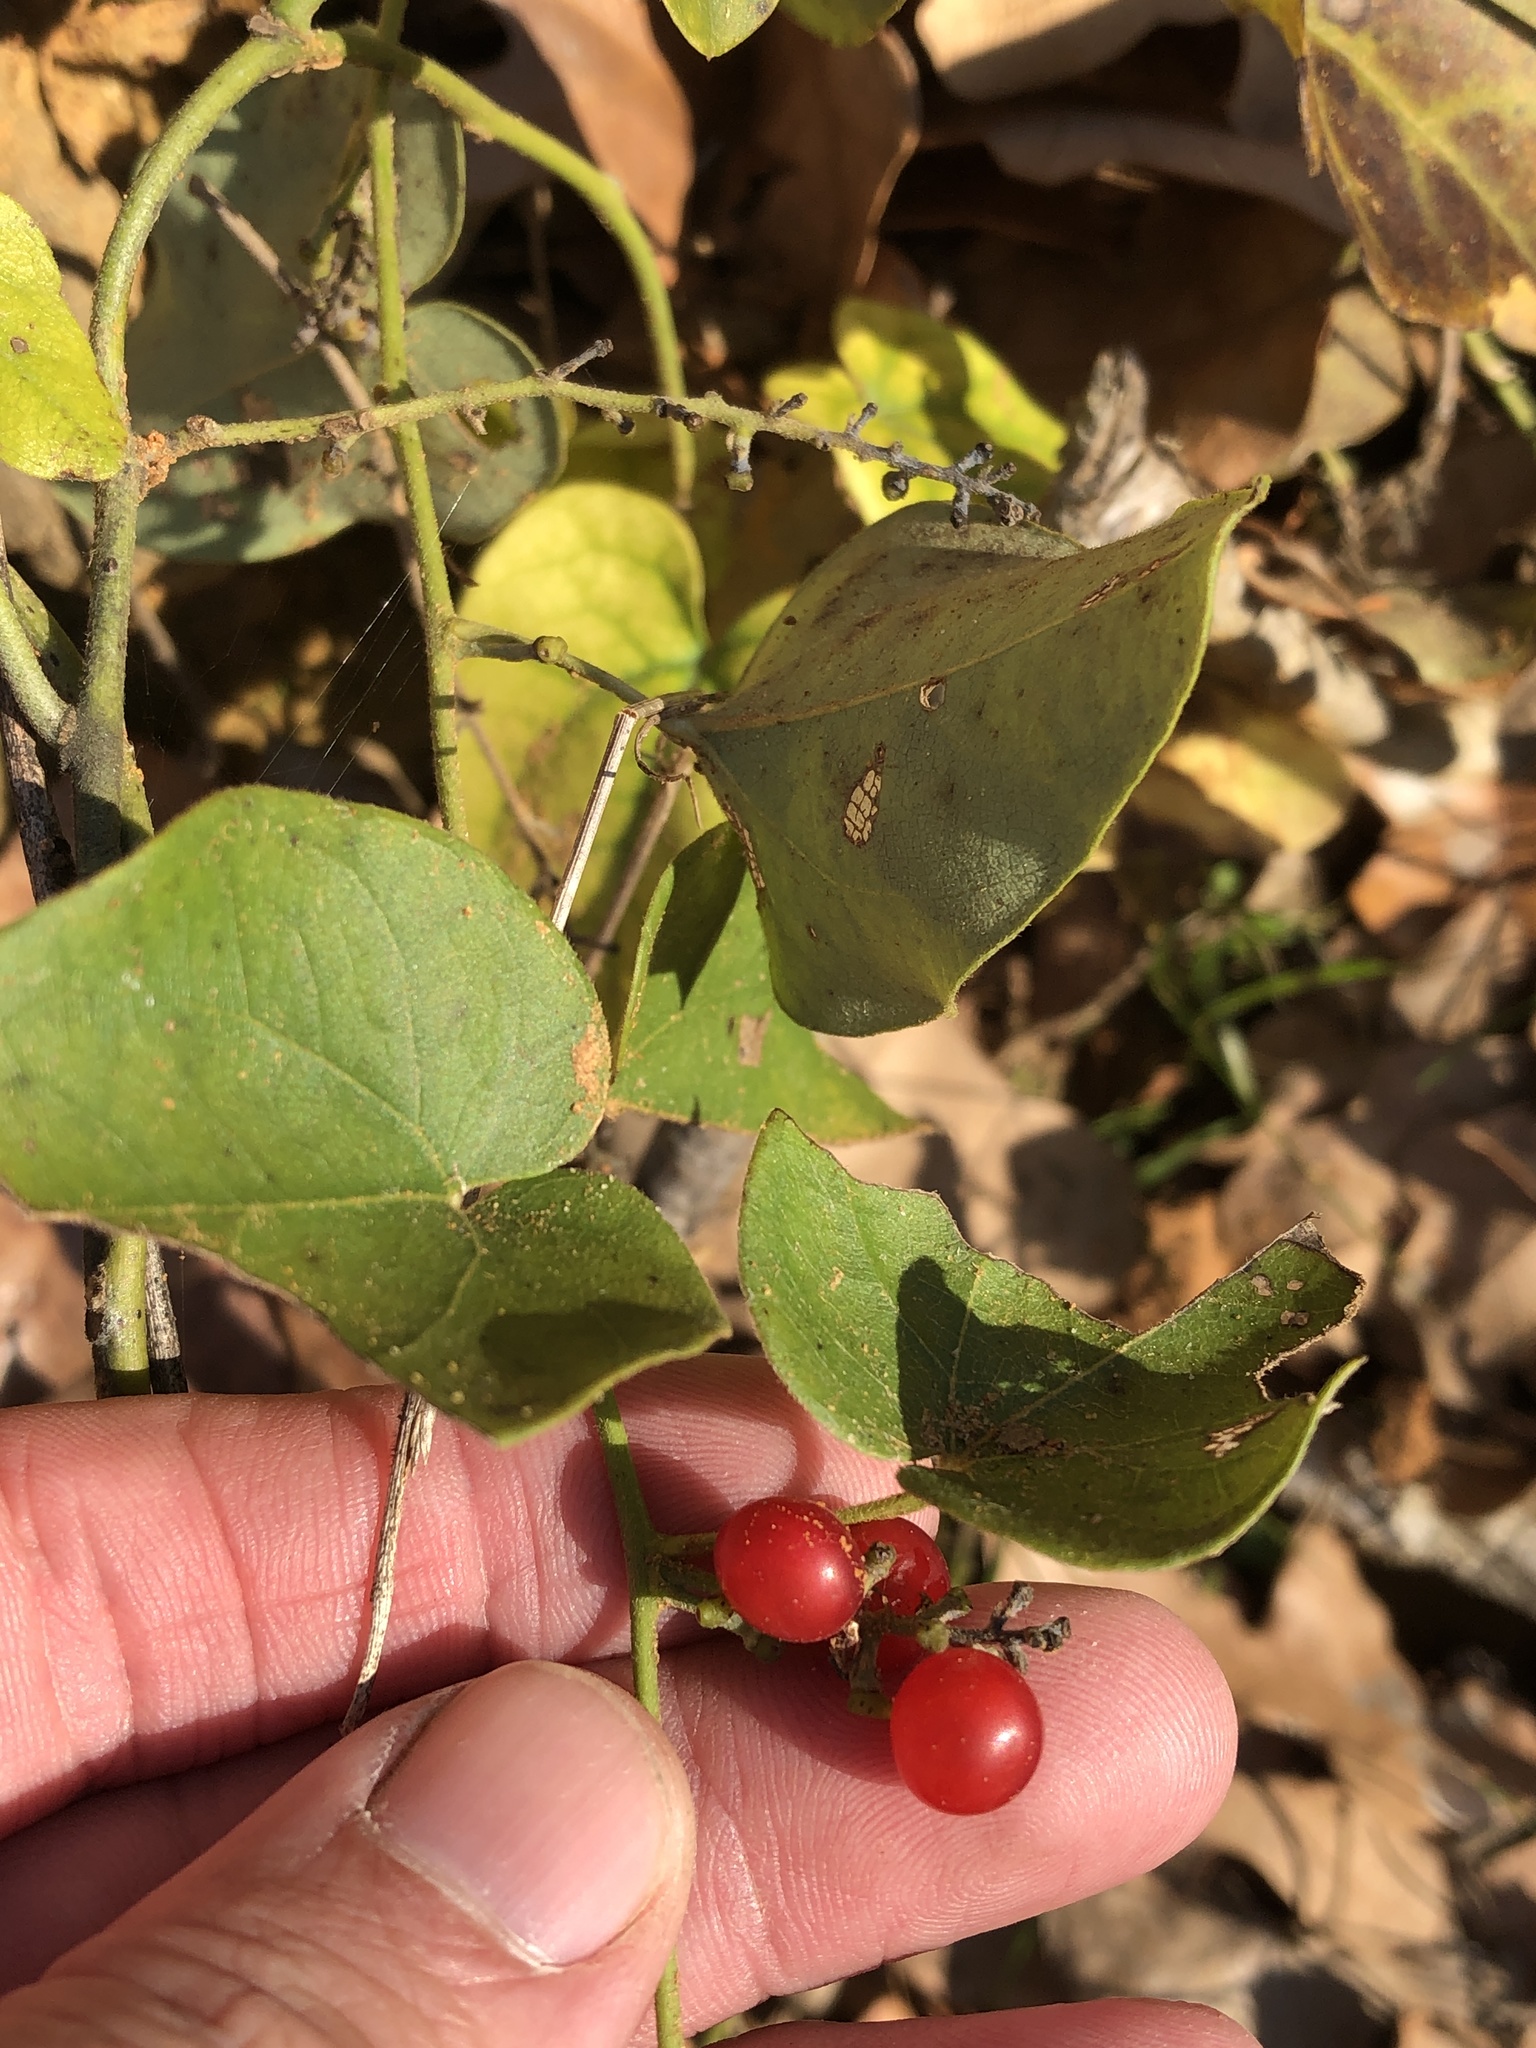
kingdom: Plantae
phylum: Tracheophyta
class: Magnoliopsida
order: Ranunculales
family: Menispermaceae
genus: Cocculus
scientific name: Cocculus carolinus
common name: Carolina moonseed
